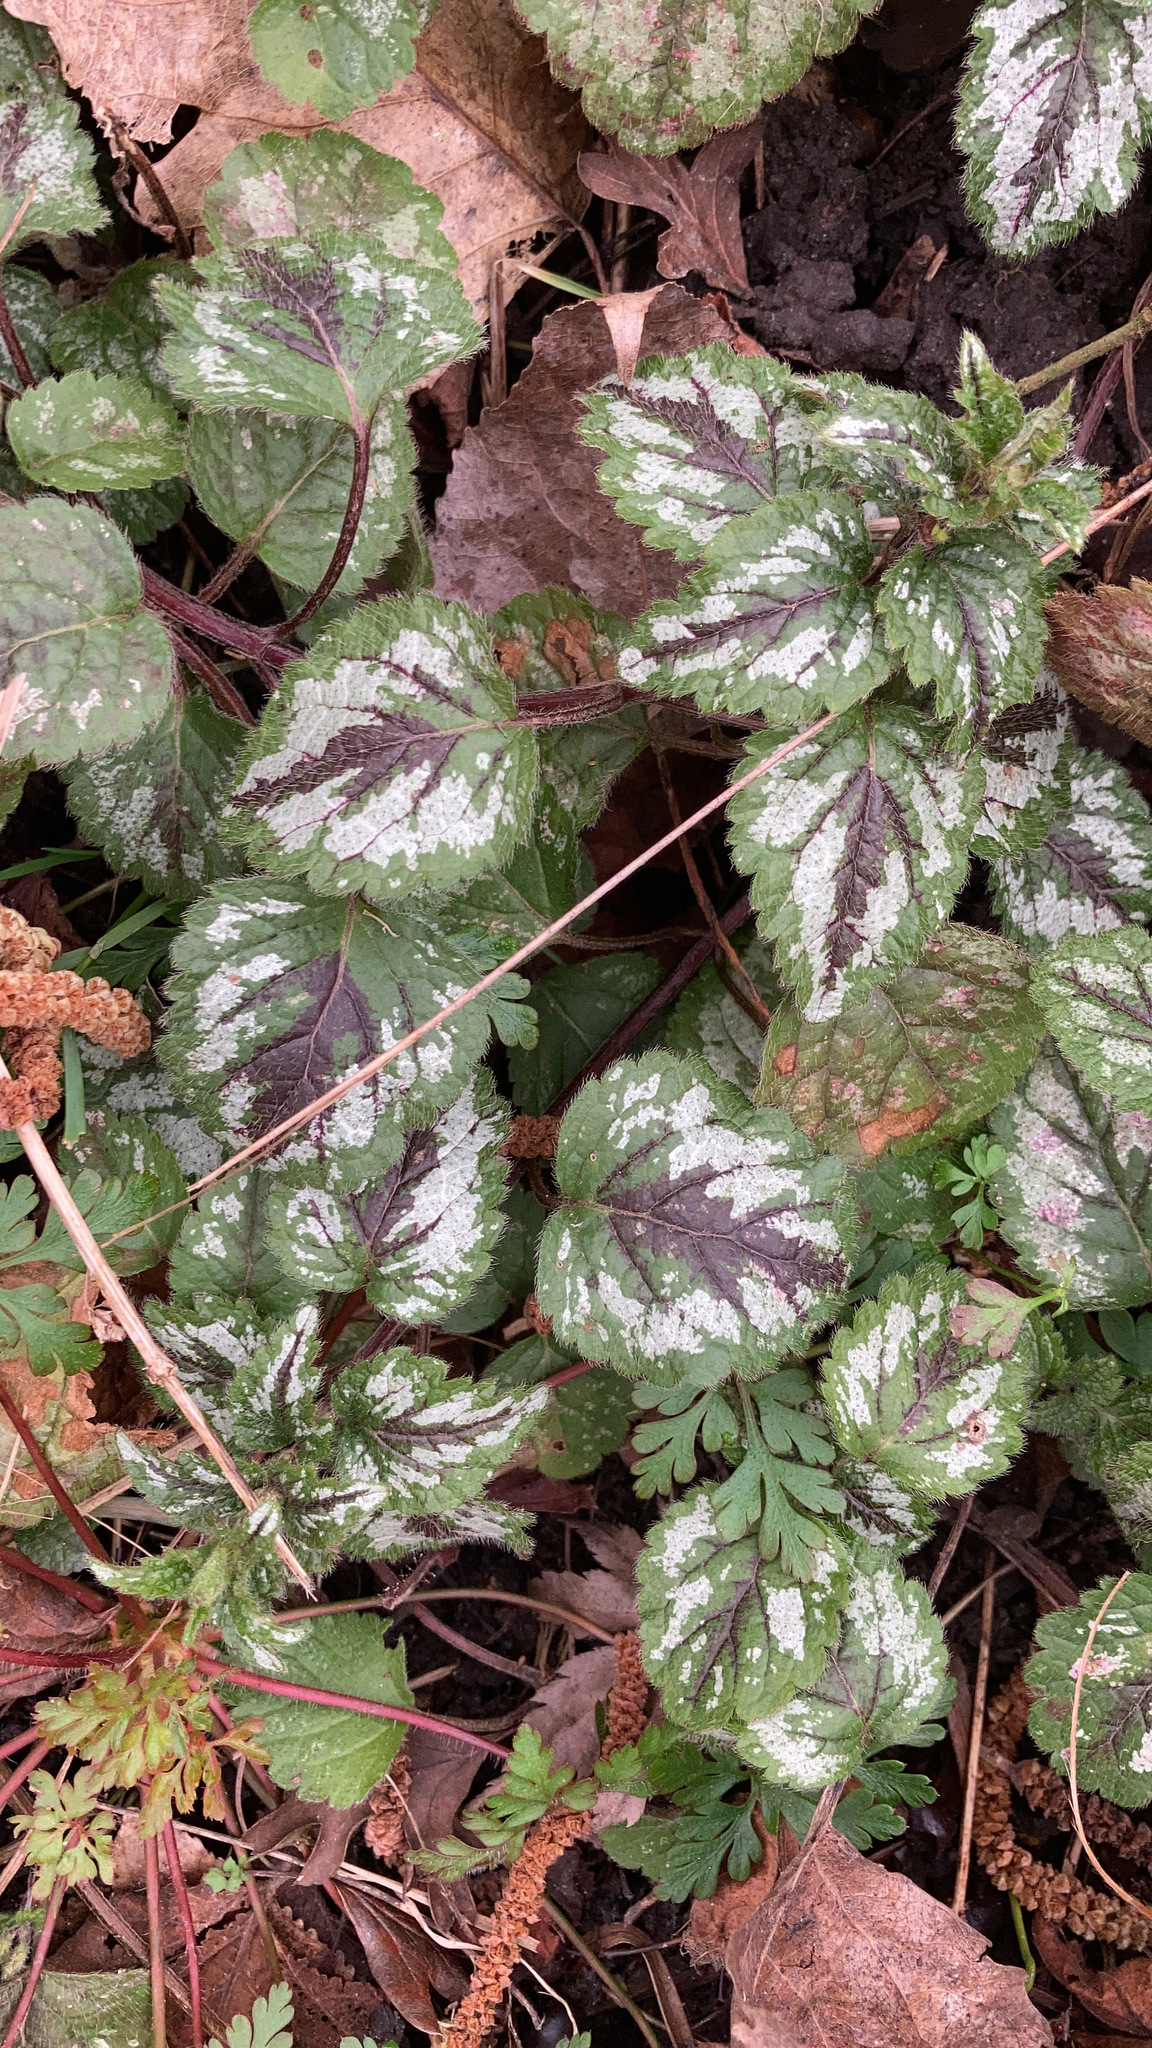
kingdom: Plantae
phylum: Tracheophyta
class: Magnoliopsida
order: Lamiales
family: Lamiaceae
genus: Lamium
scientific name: Lamium galeobdolon
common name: Yellow archangel
